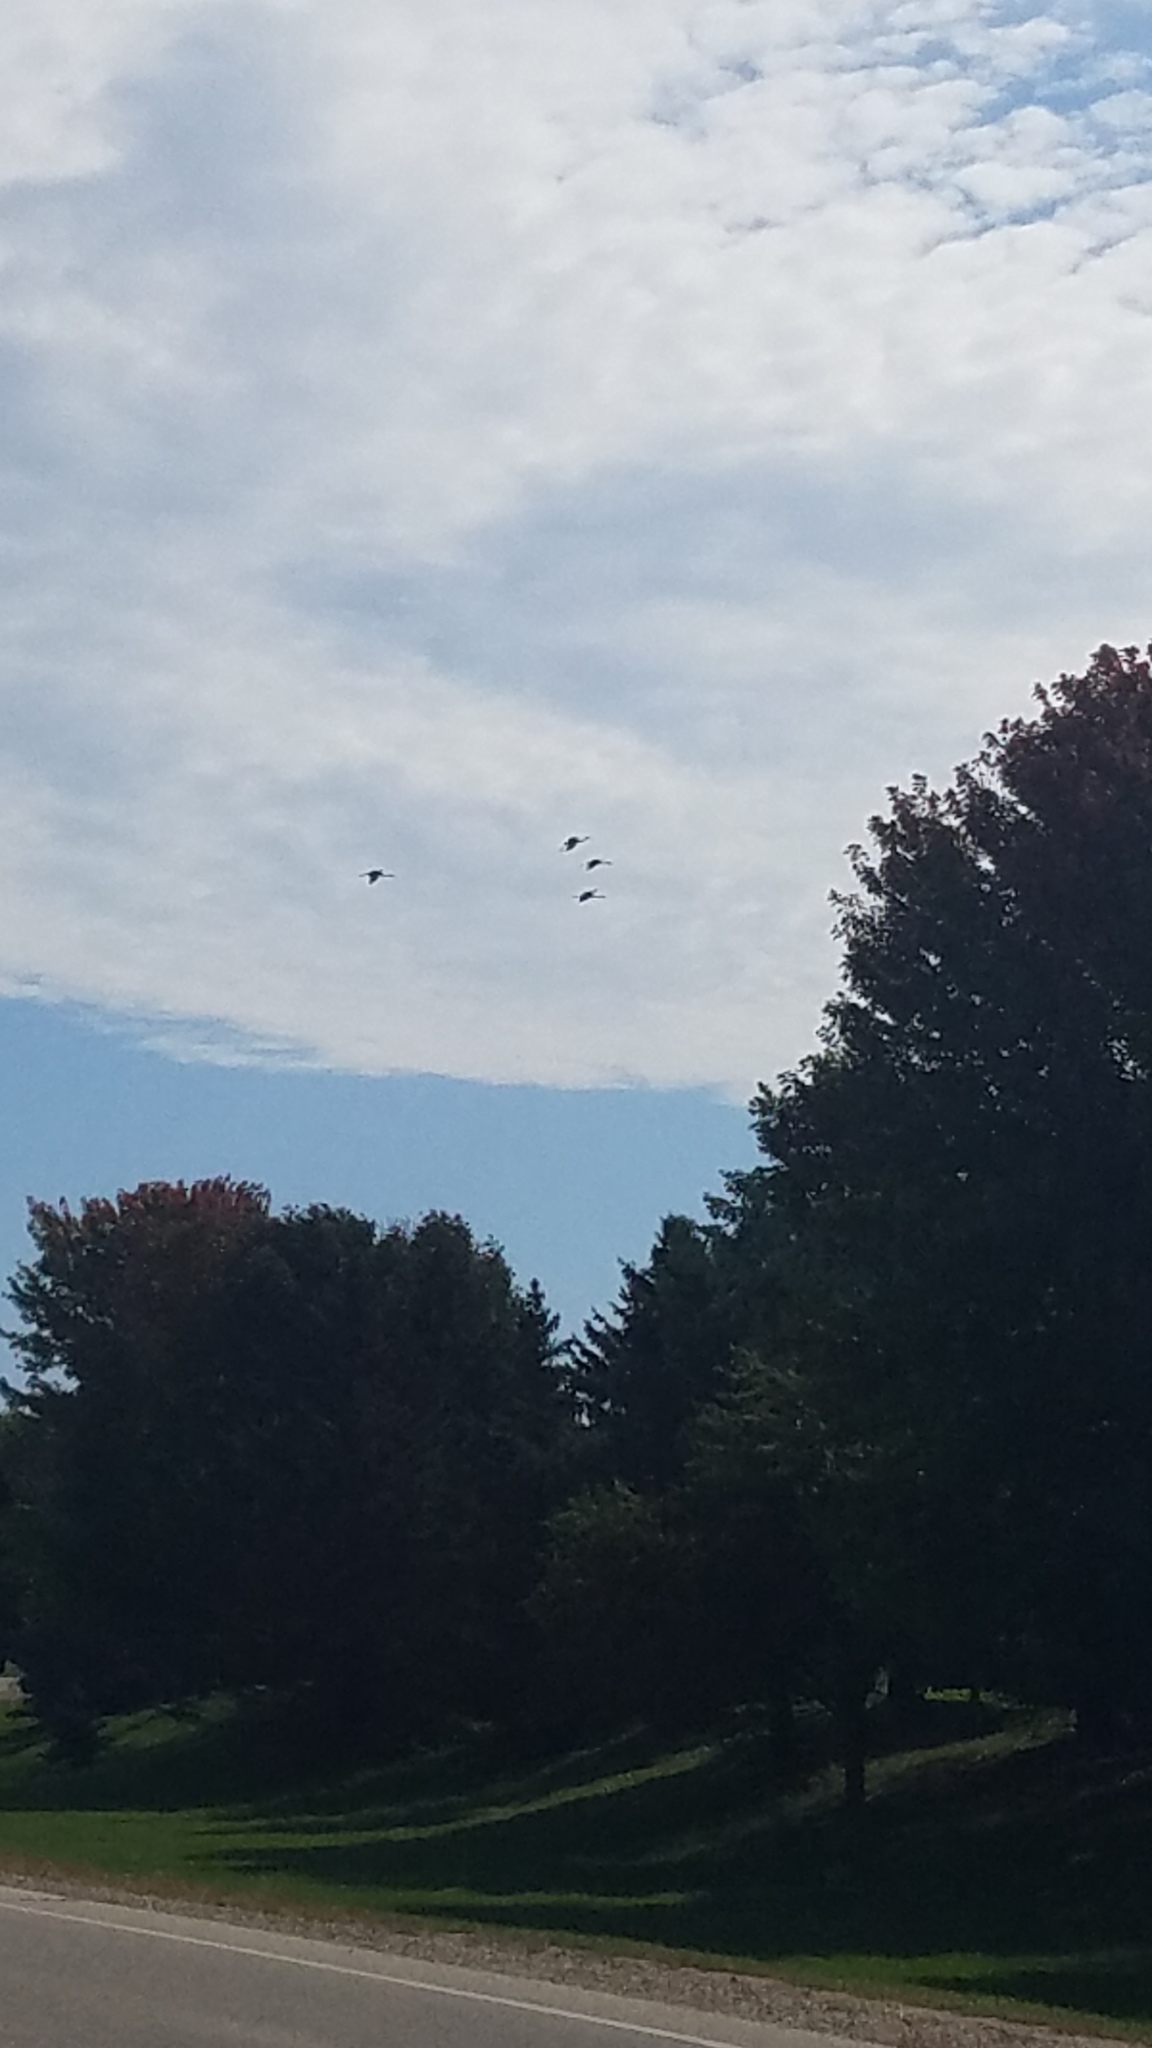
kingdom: Animalia
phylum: Chordata
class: Aves
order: Gruiformes
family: Gruidae
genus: Grus
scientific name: Grus canadensis
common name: Sandhill crane
